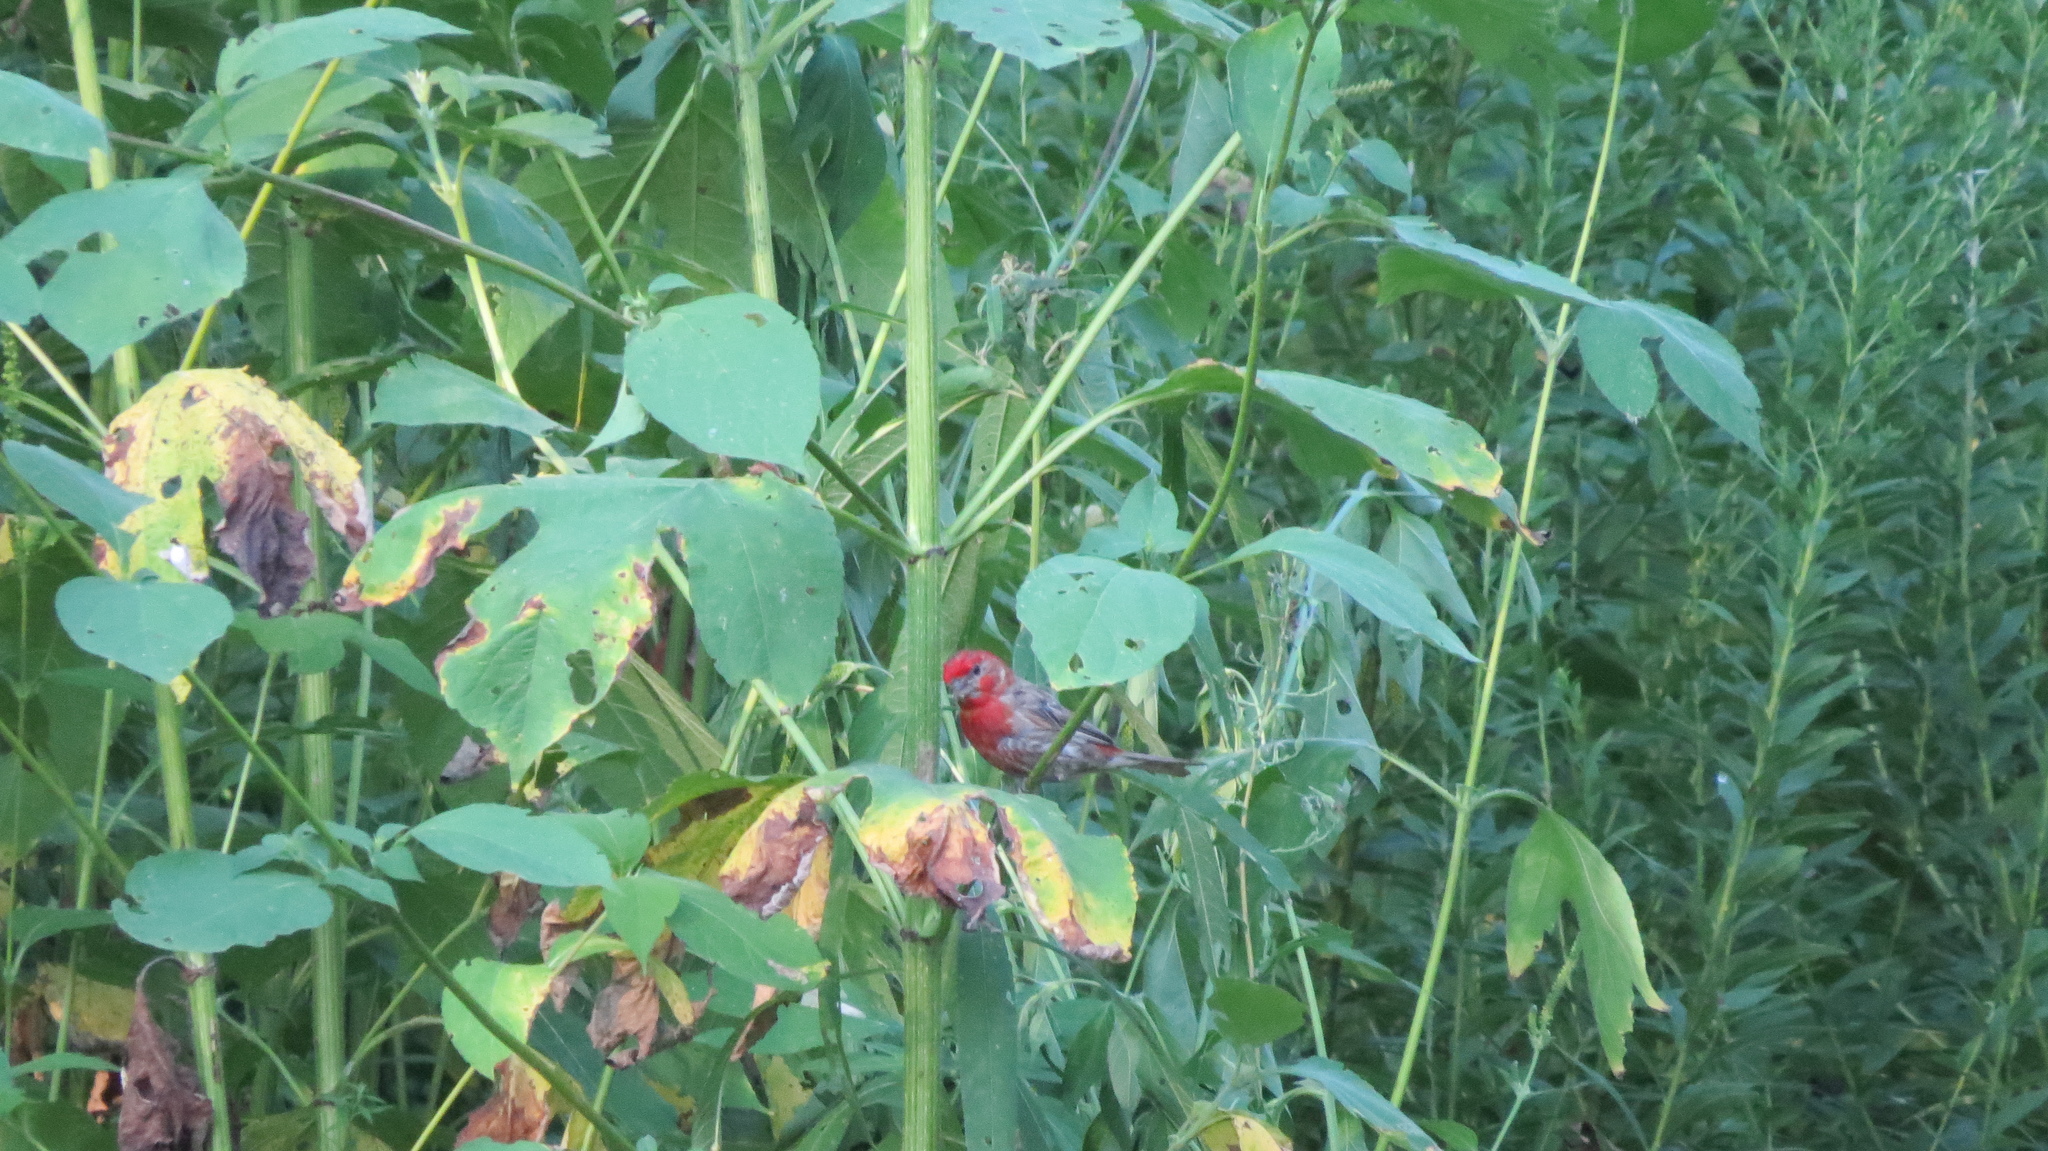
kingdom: Animalia
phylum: Chordata
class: Aves
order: Passeriformes
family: Fringillidae
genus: Haemorhous
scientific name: Haemorhous mexicanus
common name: House finch
